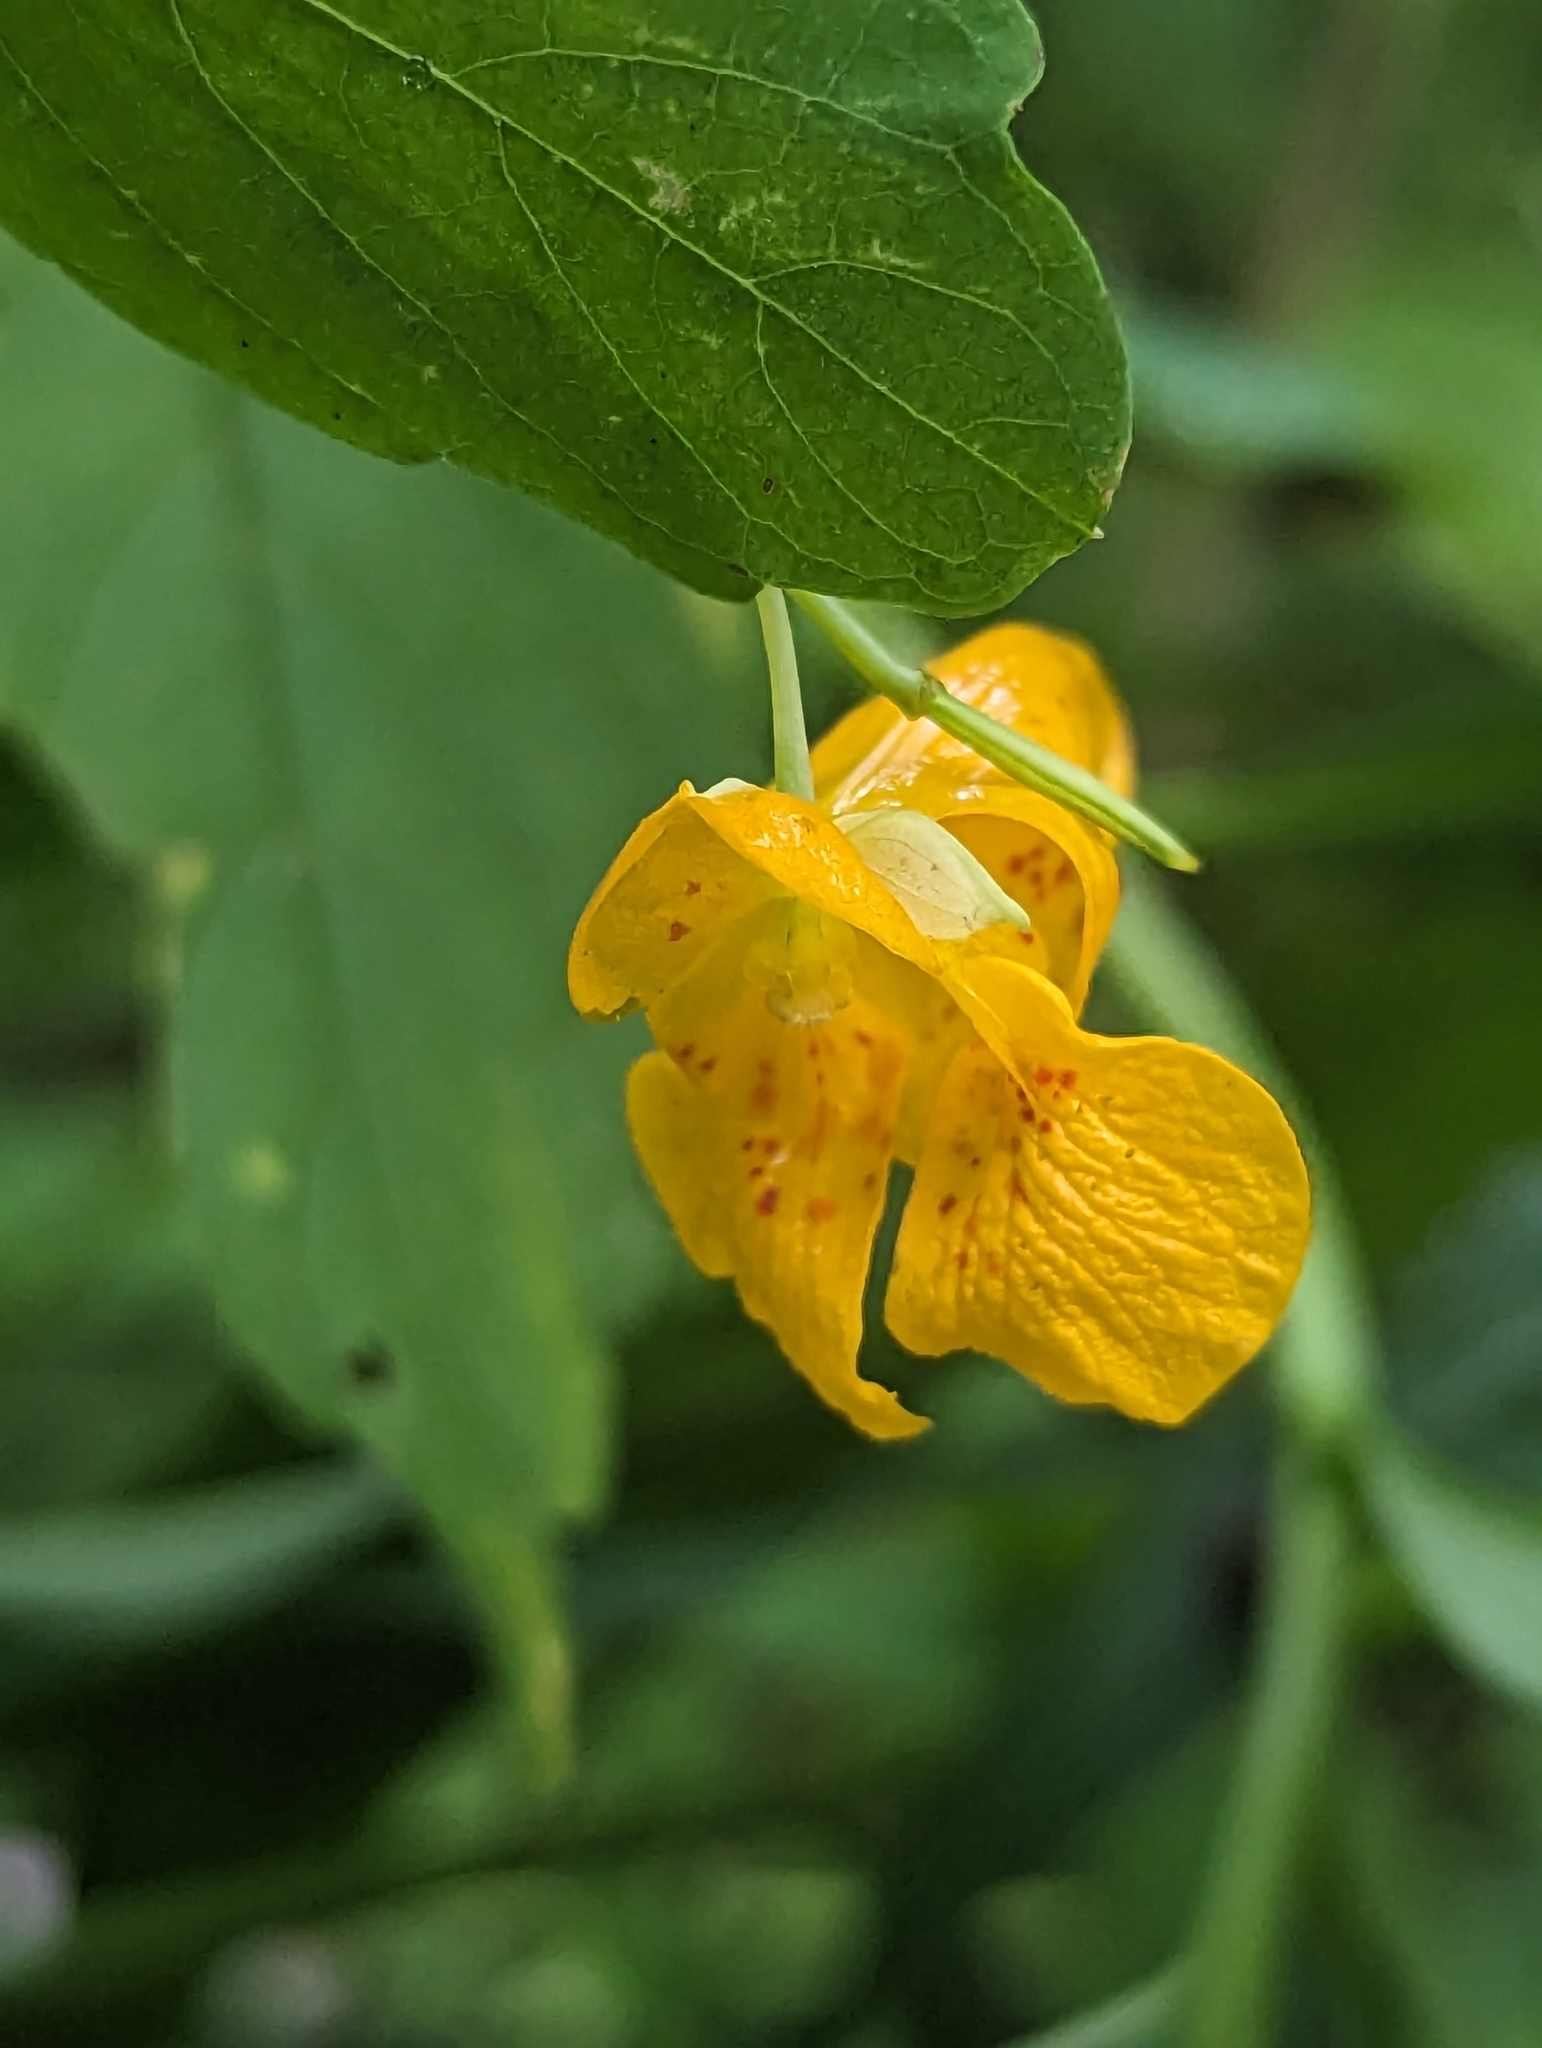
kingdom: Plantae
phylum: Tracheophyta
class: Magnoliopsida
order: Ericales
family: Balsaminaceae
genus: Impatiens
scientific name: Impatiens capensis
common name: Orange balsam
